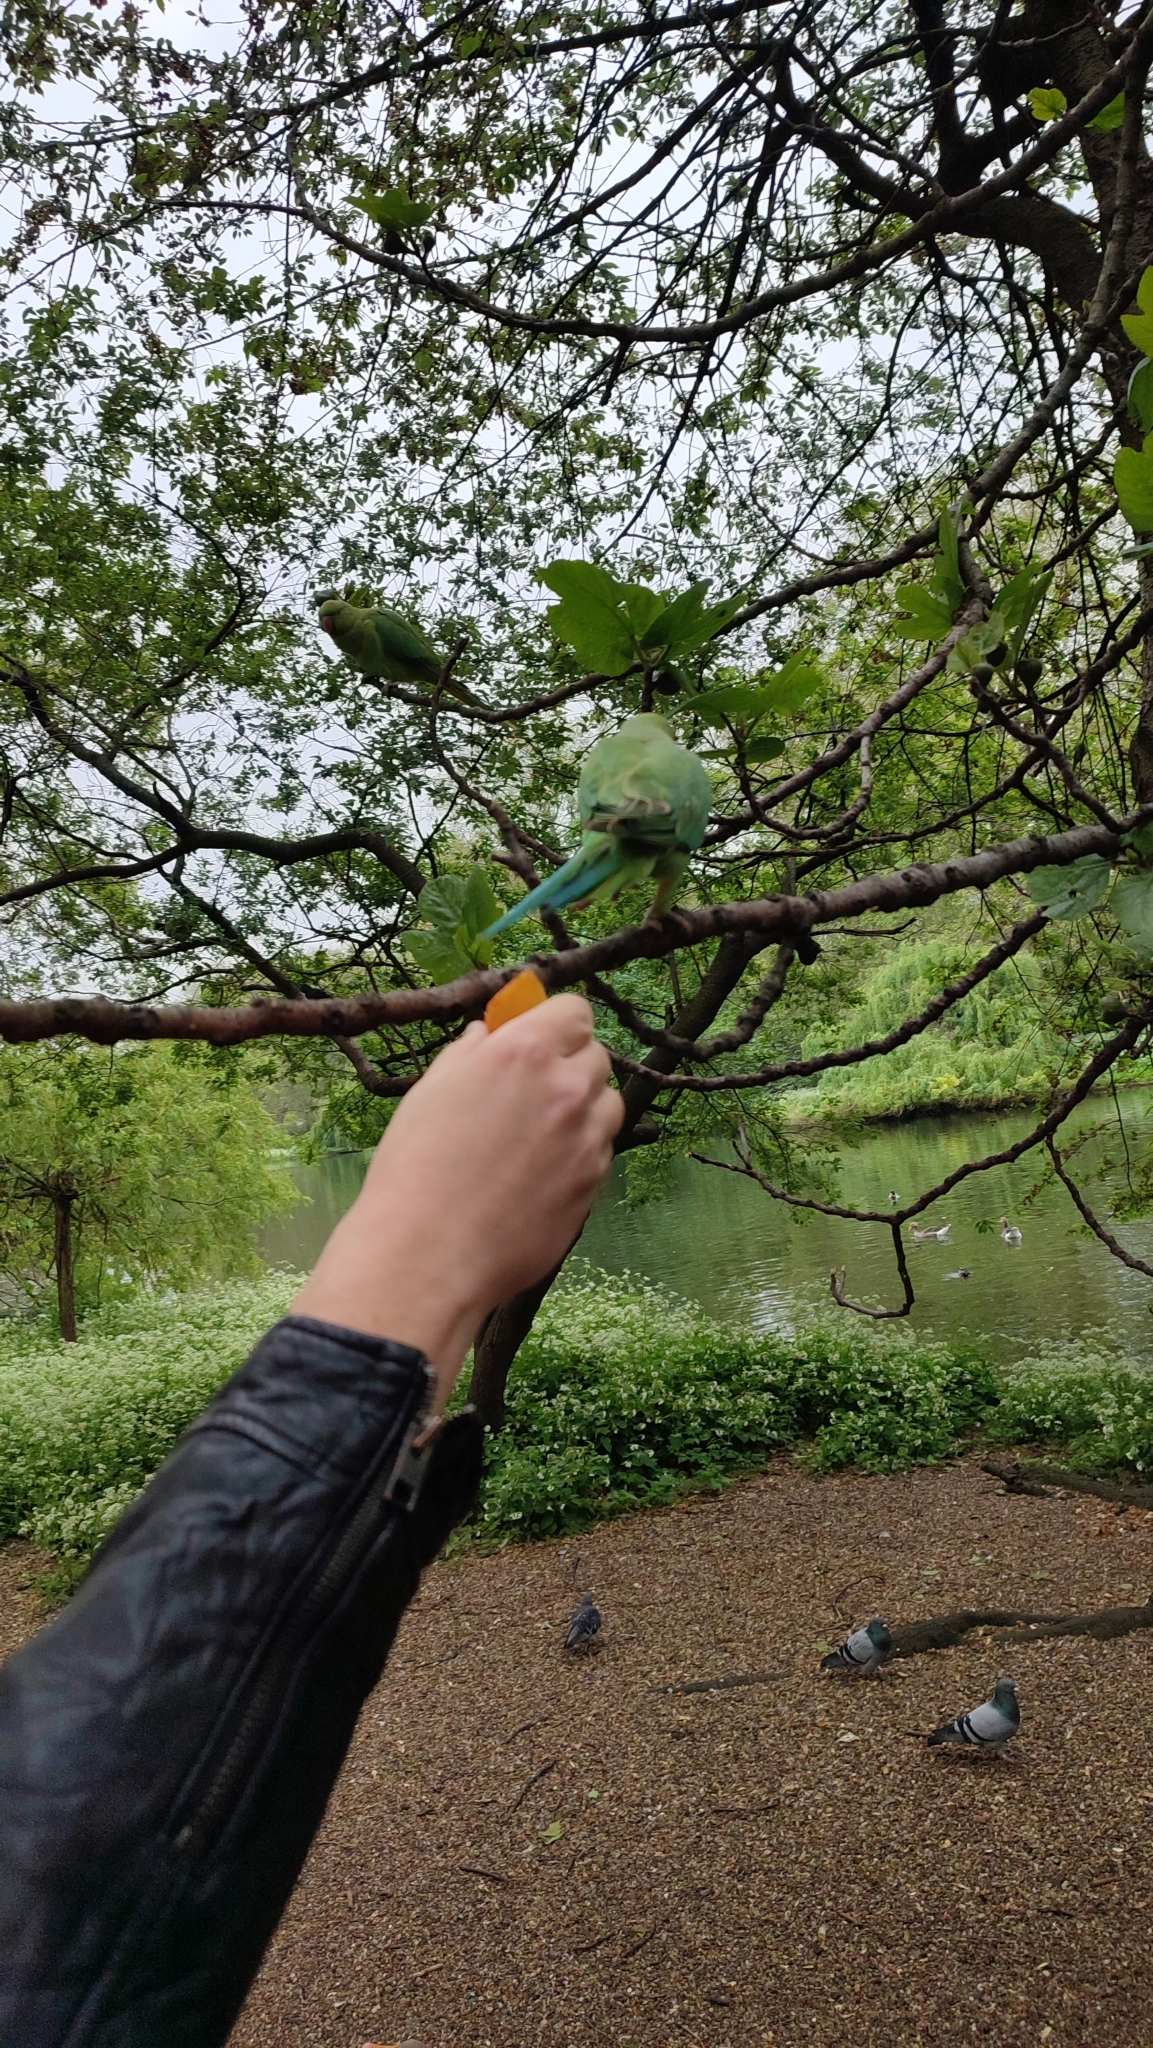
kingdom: Animalia
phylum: Chordata
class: Aves
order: Psittaciformes
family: Psittacidae
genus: Psittacula
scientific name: Psittacula krameri
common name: Rose-ringed parakeet
